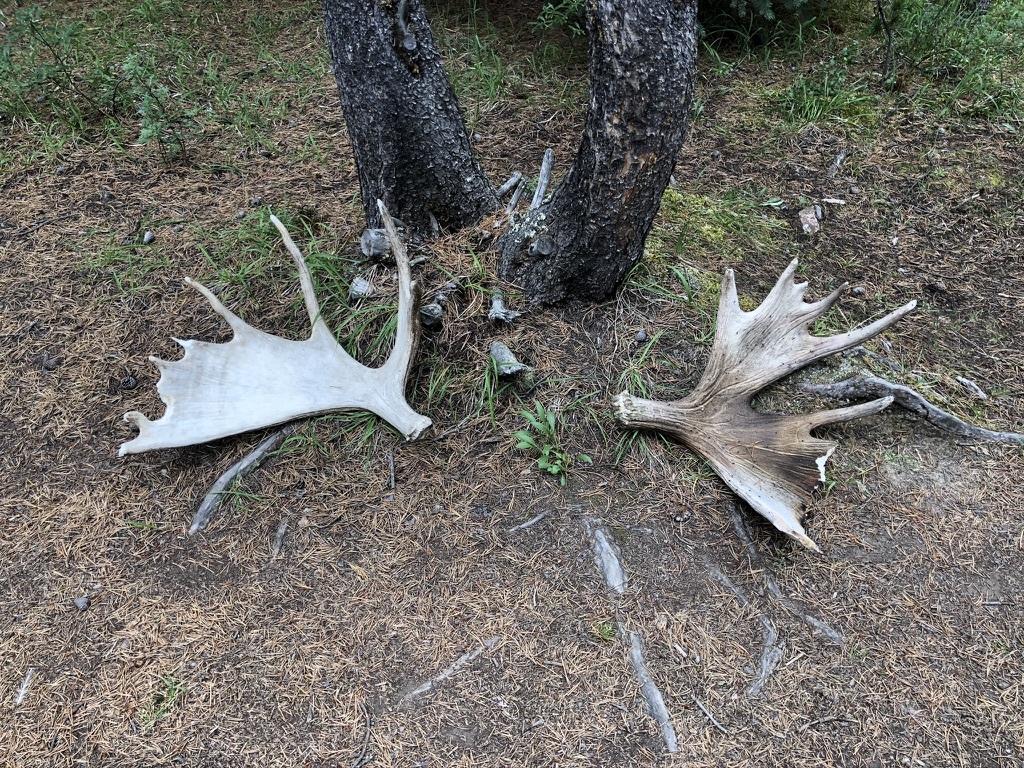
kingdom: Animalia
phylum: Chordata
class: Mammalia
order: Artiodactyla
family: Cervidae
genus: Alces
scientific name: Alces americanus
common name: Moose
